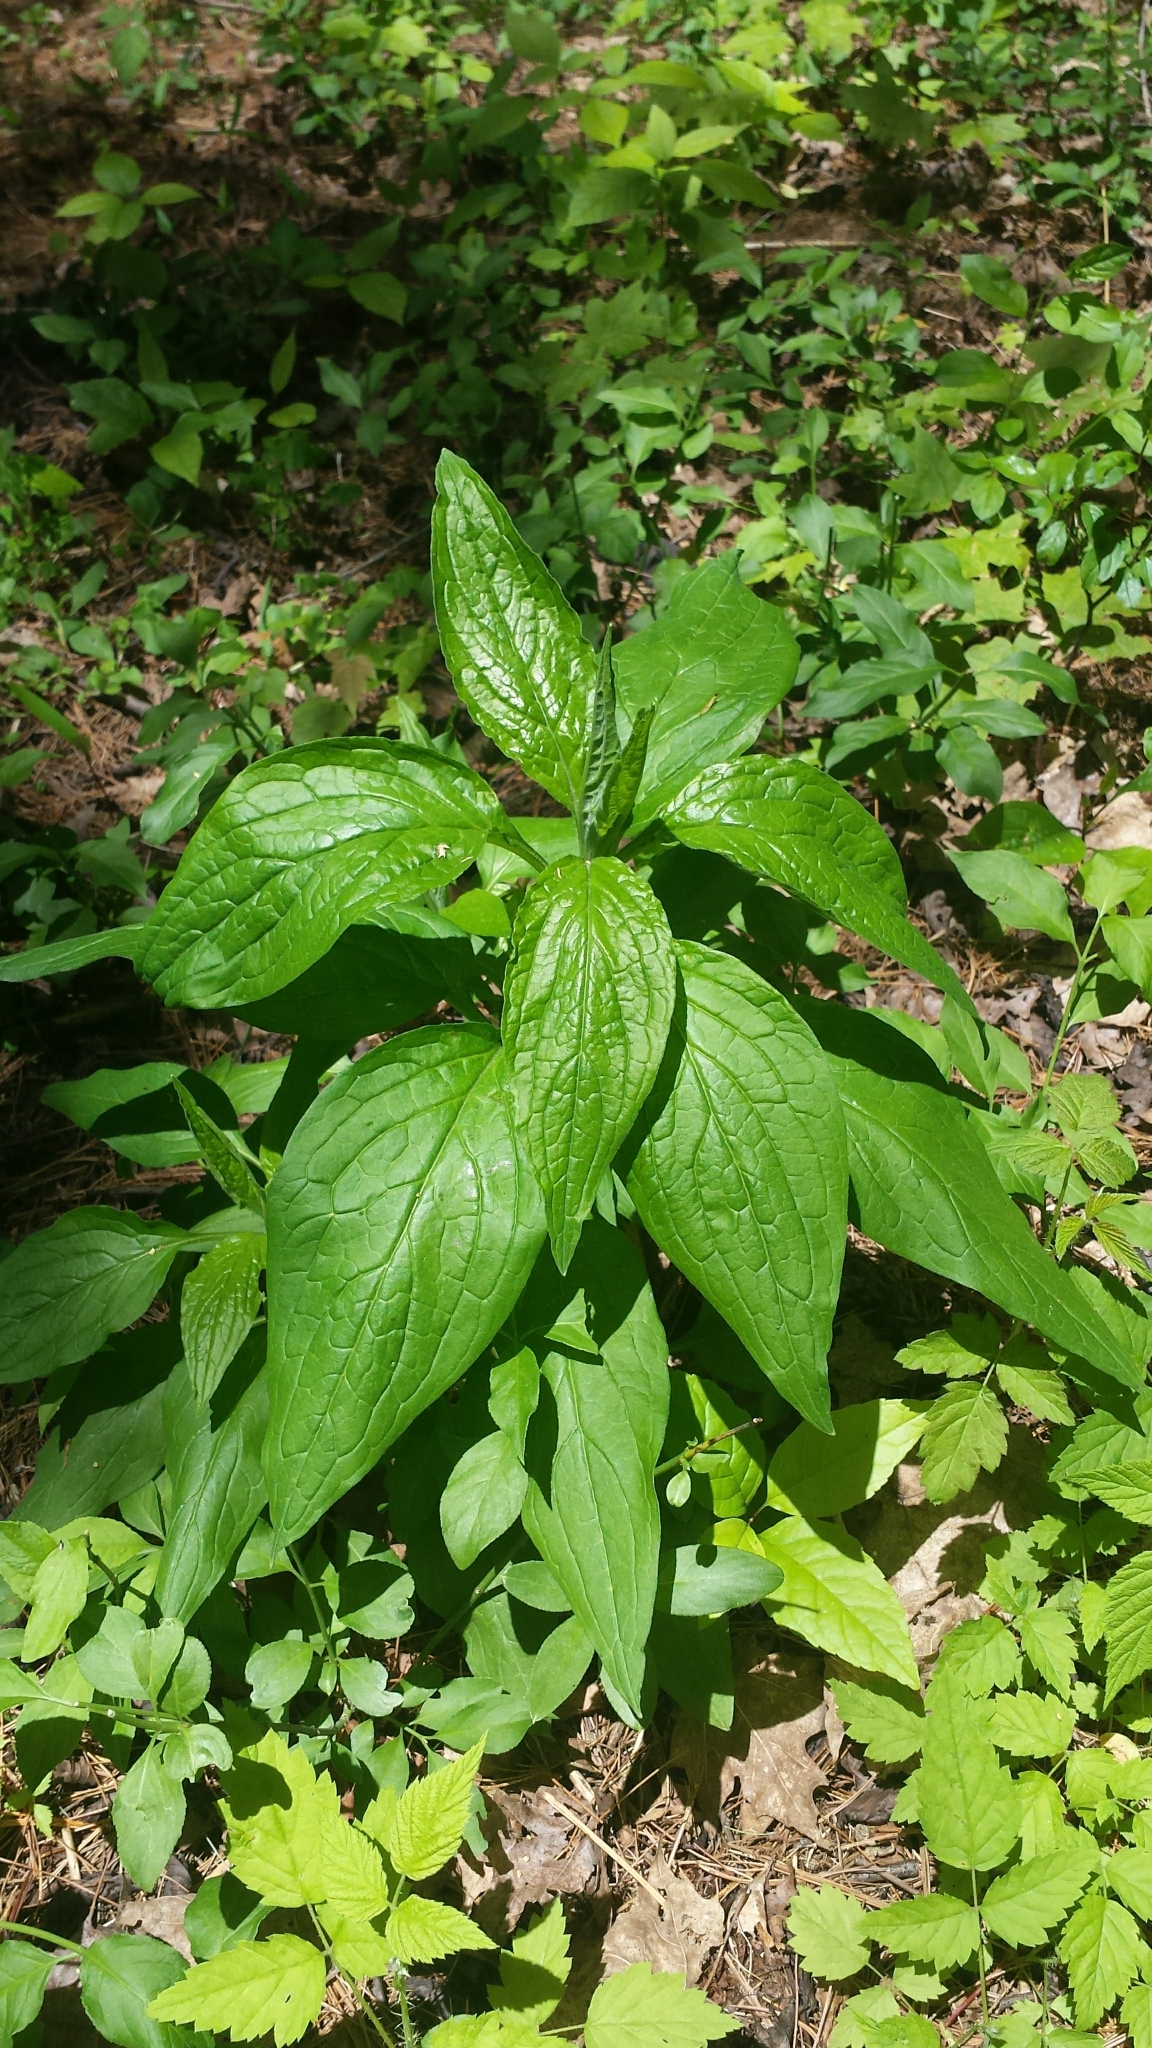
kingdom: Plantae
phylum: Tracheophyta
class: Magnoliopsida
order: Boraginales
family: Boraginaceae
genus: Hackelia
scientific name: Hackelia virginiana
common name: Beggar's-lice
